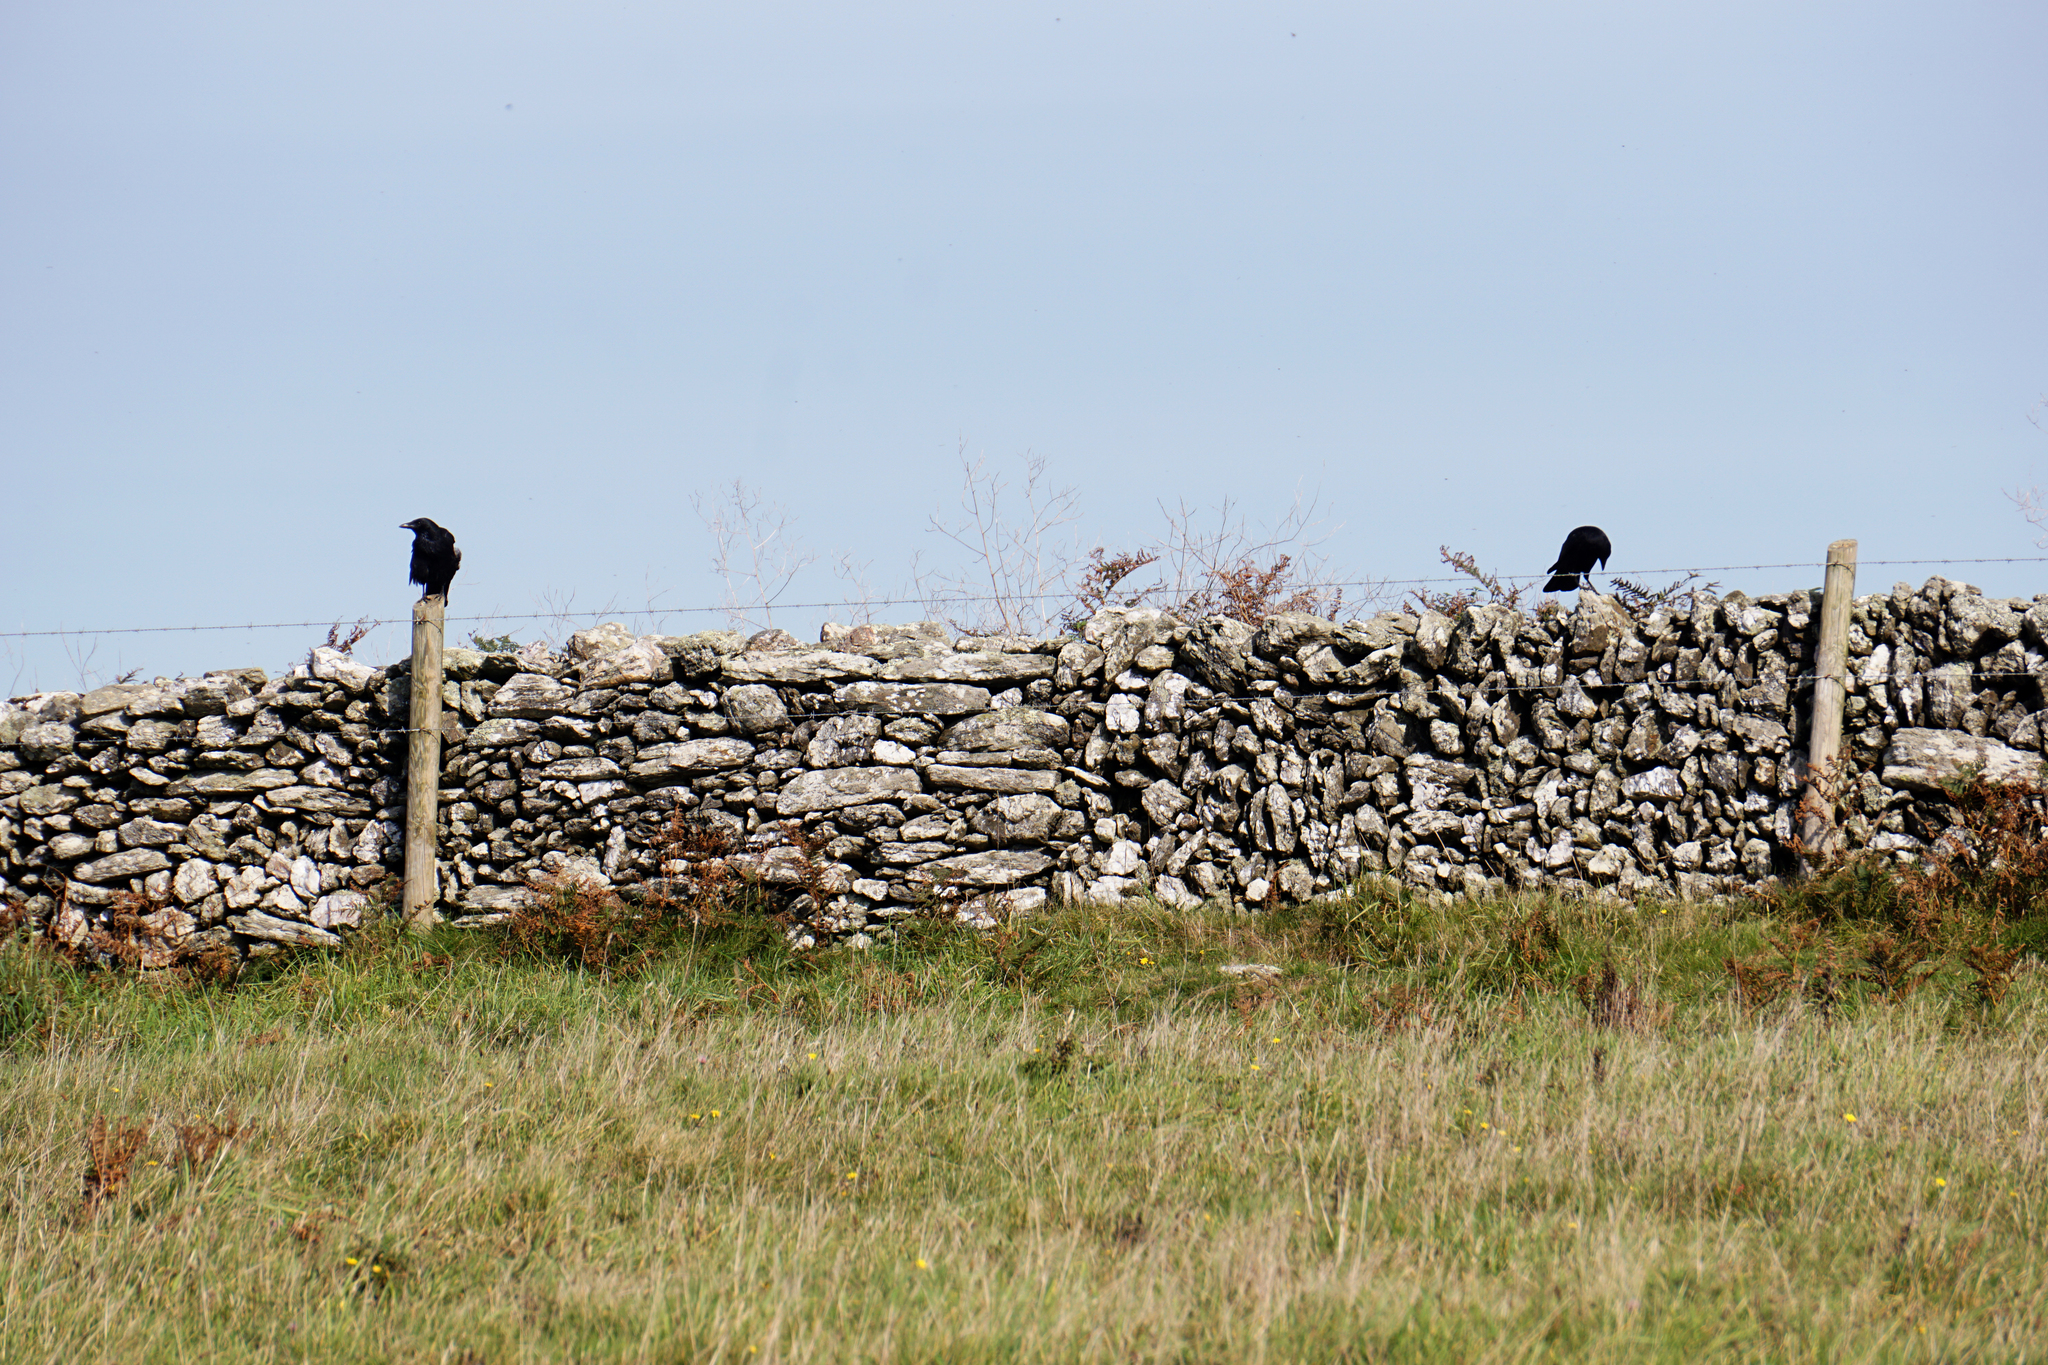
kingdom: Animalia
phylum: Chordata
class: Aves
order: Passeriformes
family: Corvidae
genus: Corvus
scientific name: Corvus corone
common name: Carrion crow
